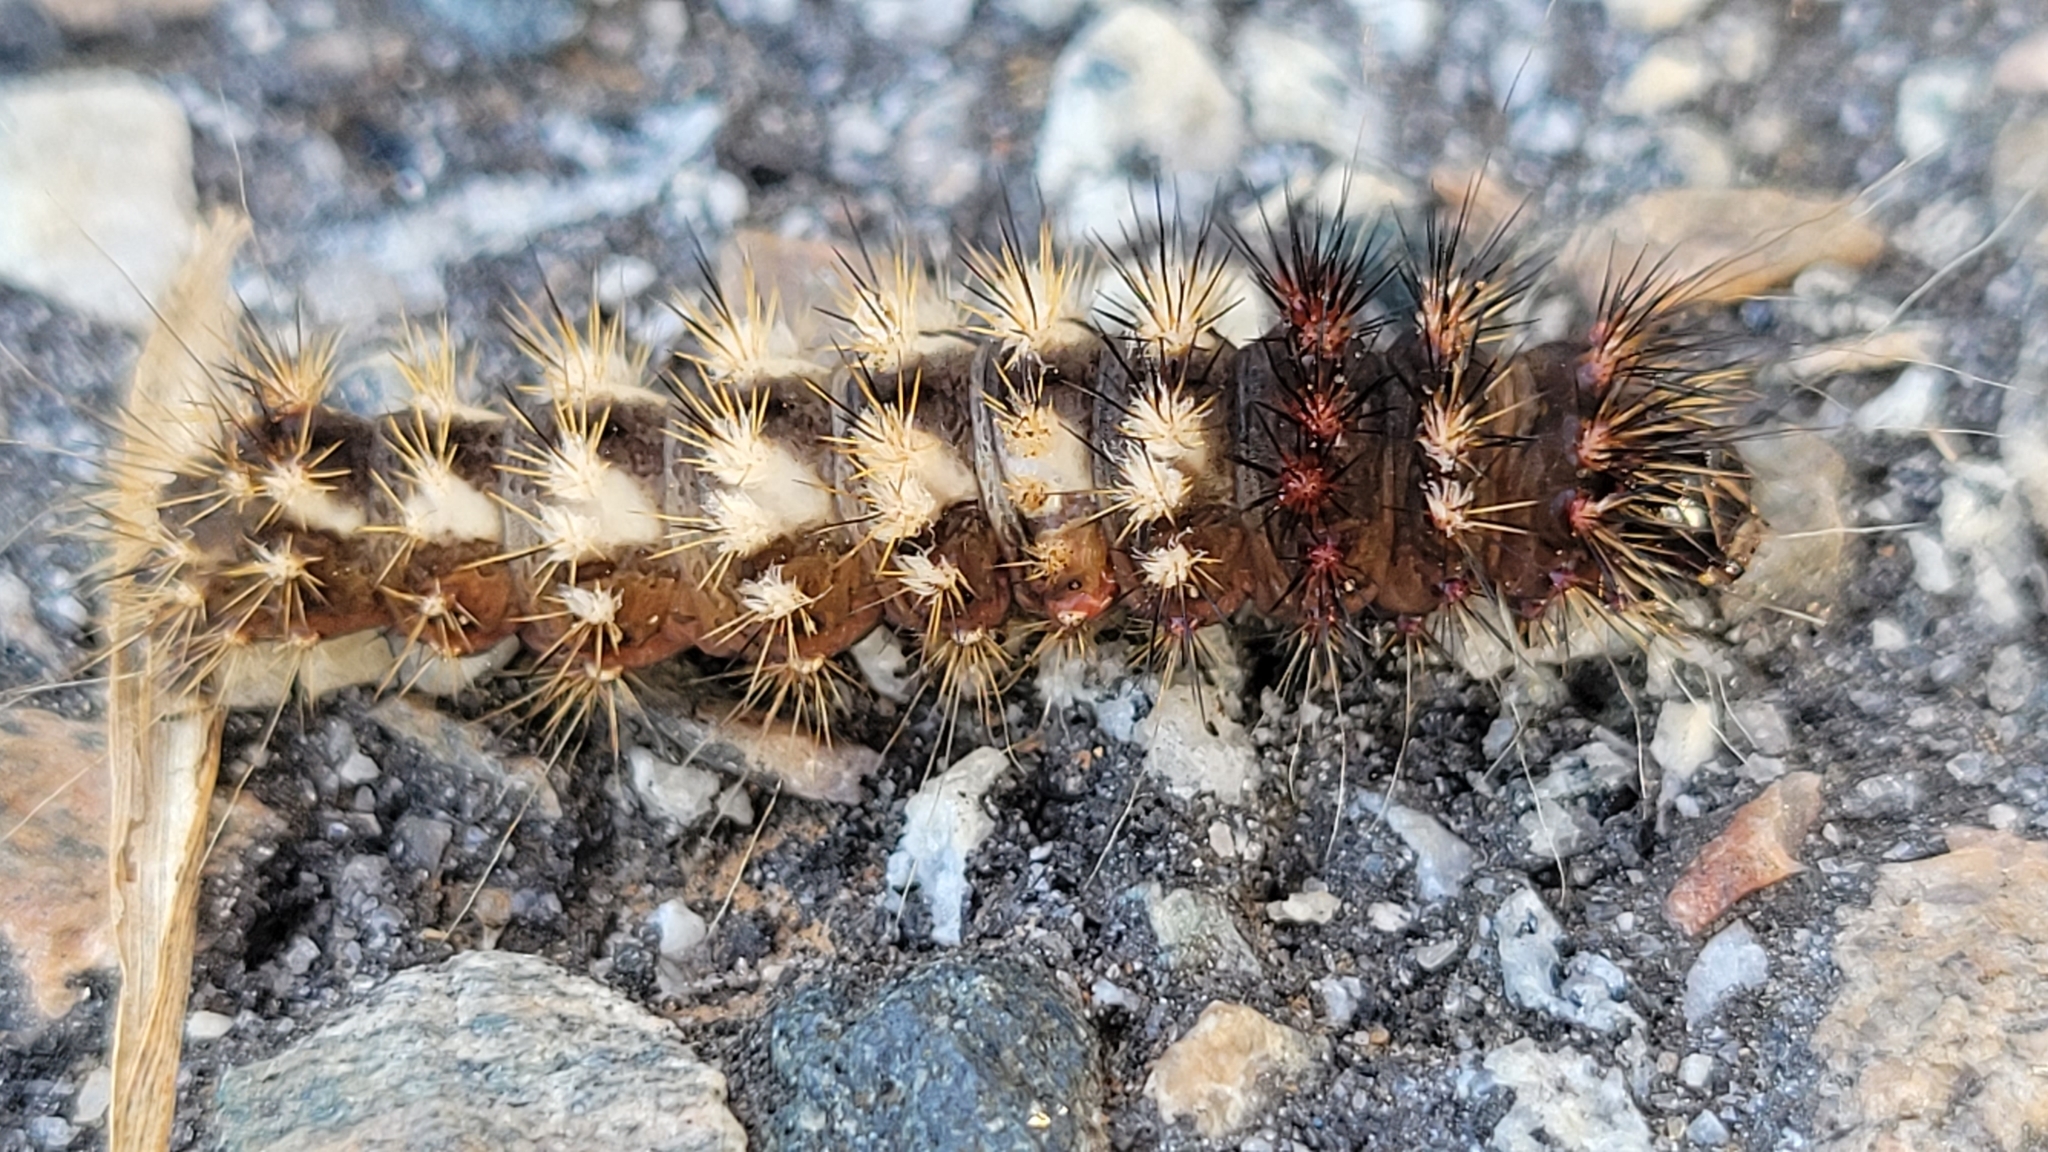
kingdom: Animalia
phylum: Arthropoda
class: Insecta
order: Lepidoptera
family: Noctuidae
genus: Acronicta
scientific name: Acronicta longa
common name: Long-winged dagger
